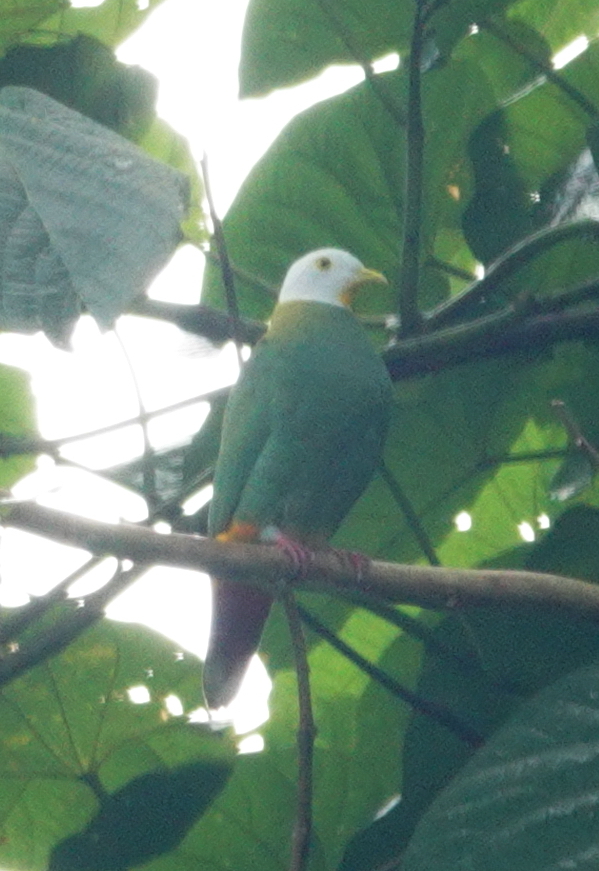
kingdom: Animalia
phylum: Chordata
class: Aves
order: Columbiformes
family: Columbidae
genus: Ptilinopus
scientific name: Ptilinopus melanospilus
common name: Black-naped fruit dove
